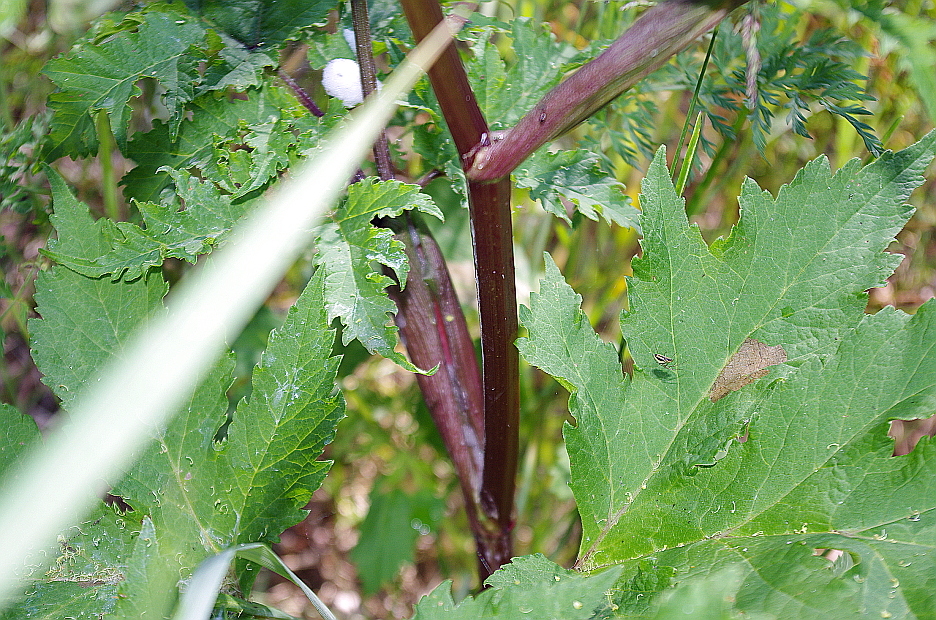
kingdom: Plantae
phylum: Tracheophyta
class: Magnoliopsida
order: Apiales
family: Apiaceae
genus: Heracleum
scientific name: Heracleum sphondylium
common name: Hogweed
